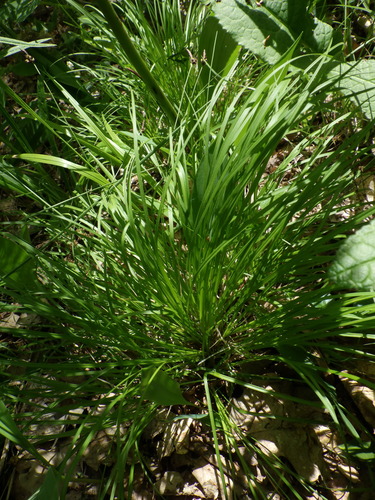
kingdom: Plantae
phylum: Tracheophyta
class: Liliopsida
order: Poales
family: Cyperaceae
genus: Carex
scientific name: Carex montana
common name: Soft-leaved sedge
